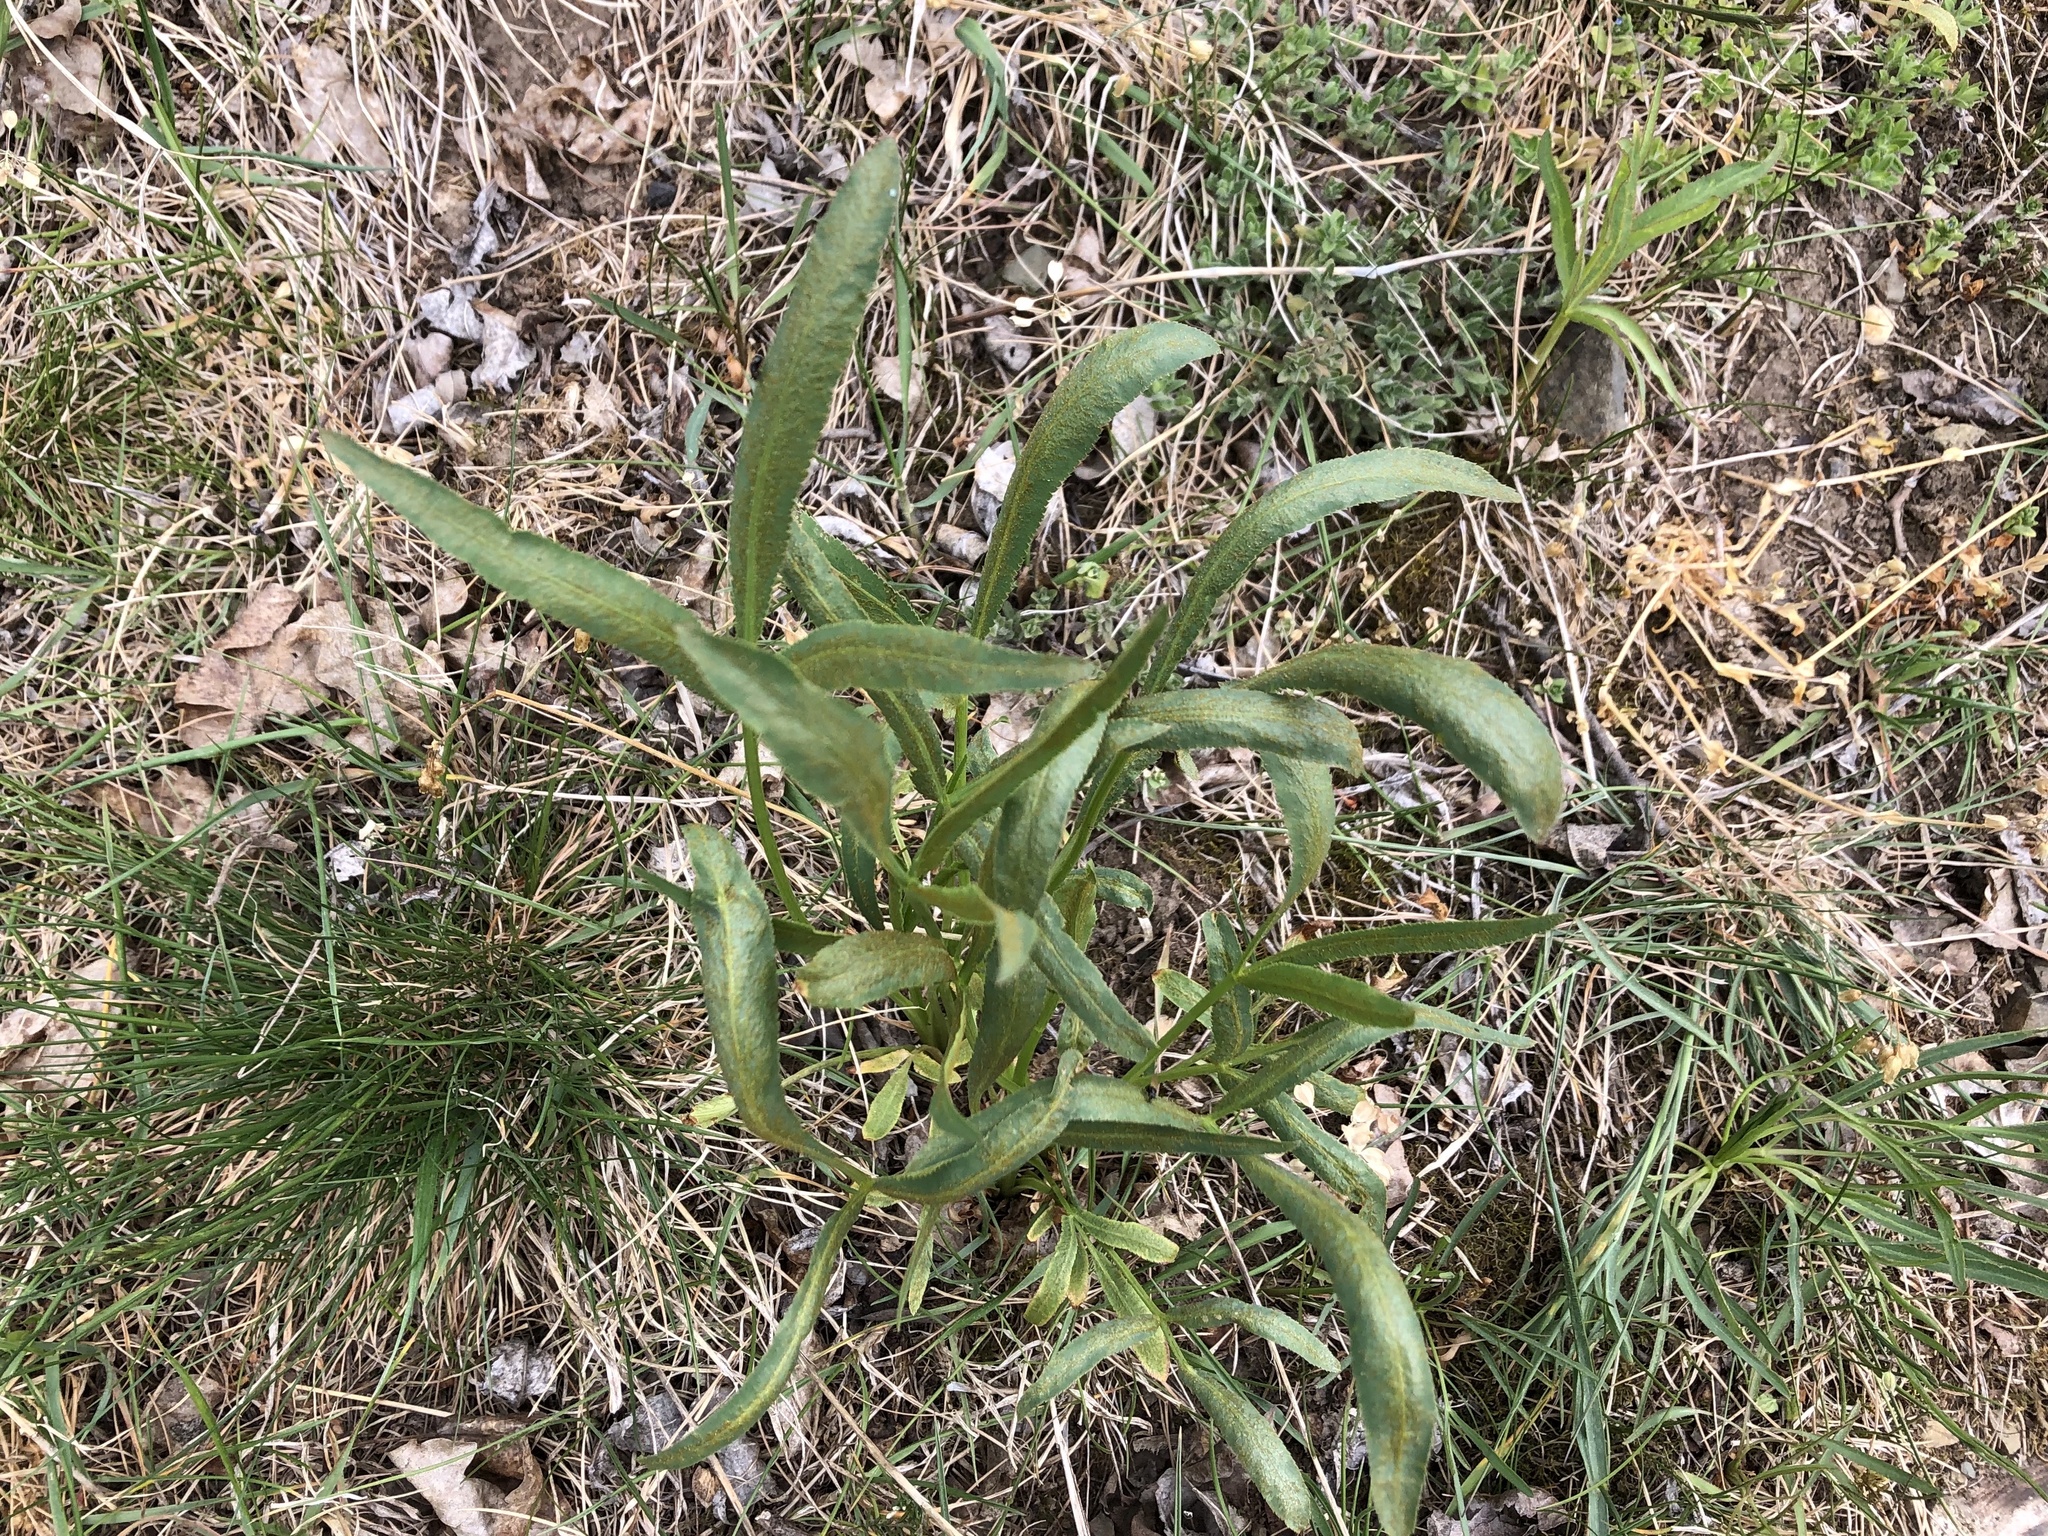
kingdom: Plantae
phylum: Tracheophyta
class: Magnoliopsida
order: Apiales
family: Apiaceae
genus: Falcaria
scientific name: Falcaria vulgaris
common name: Longleaf
